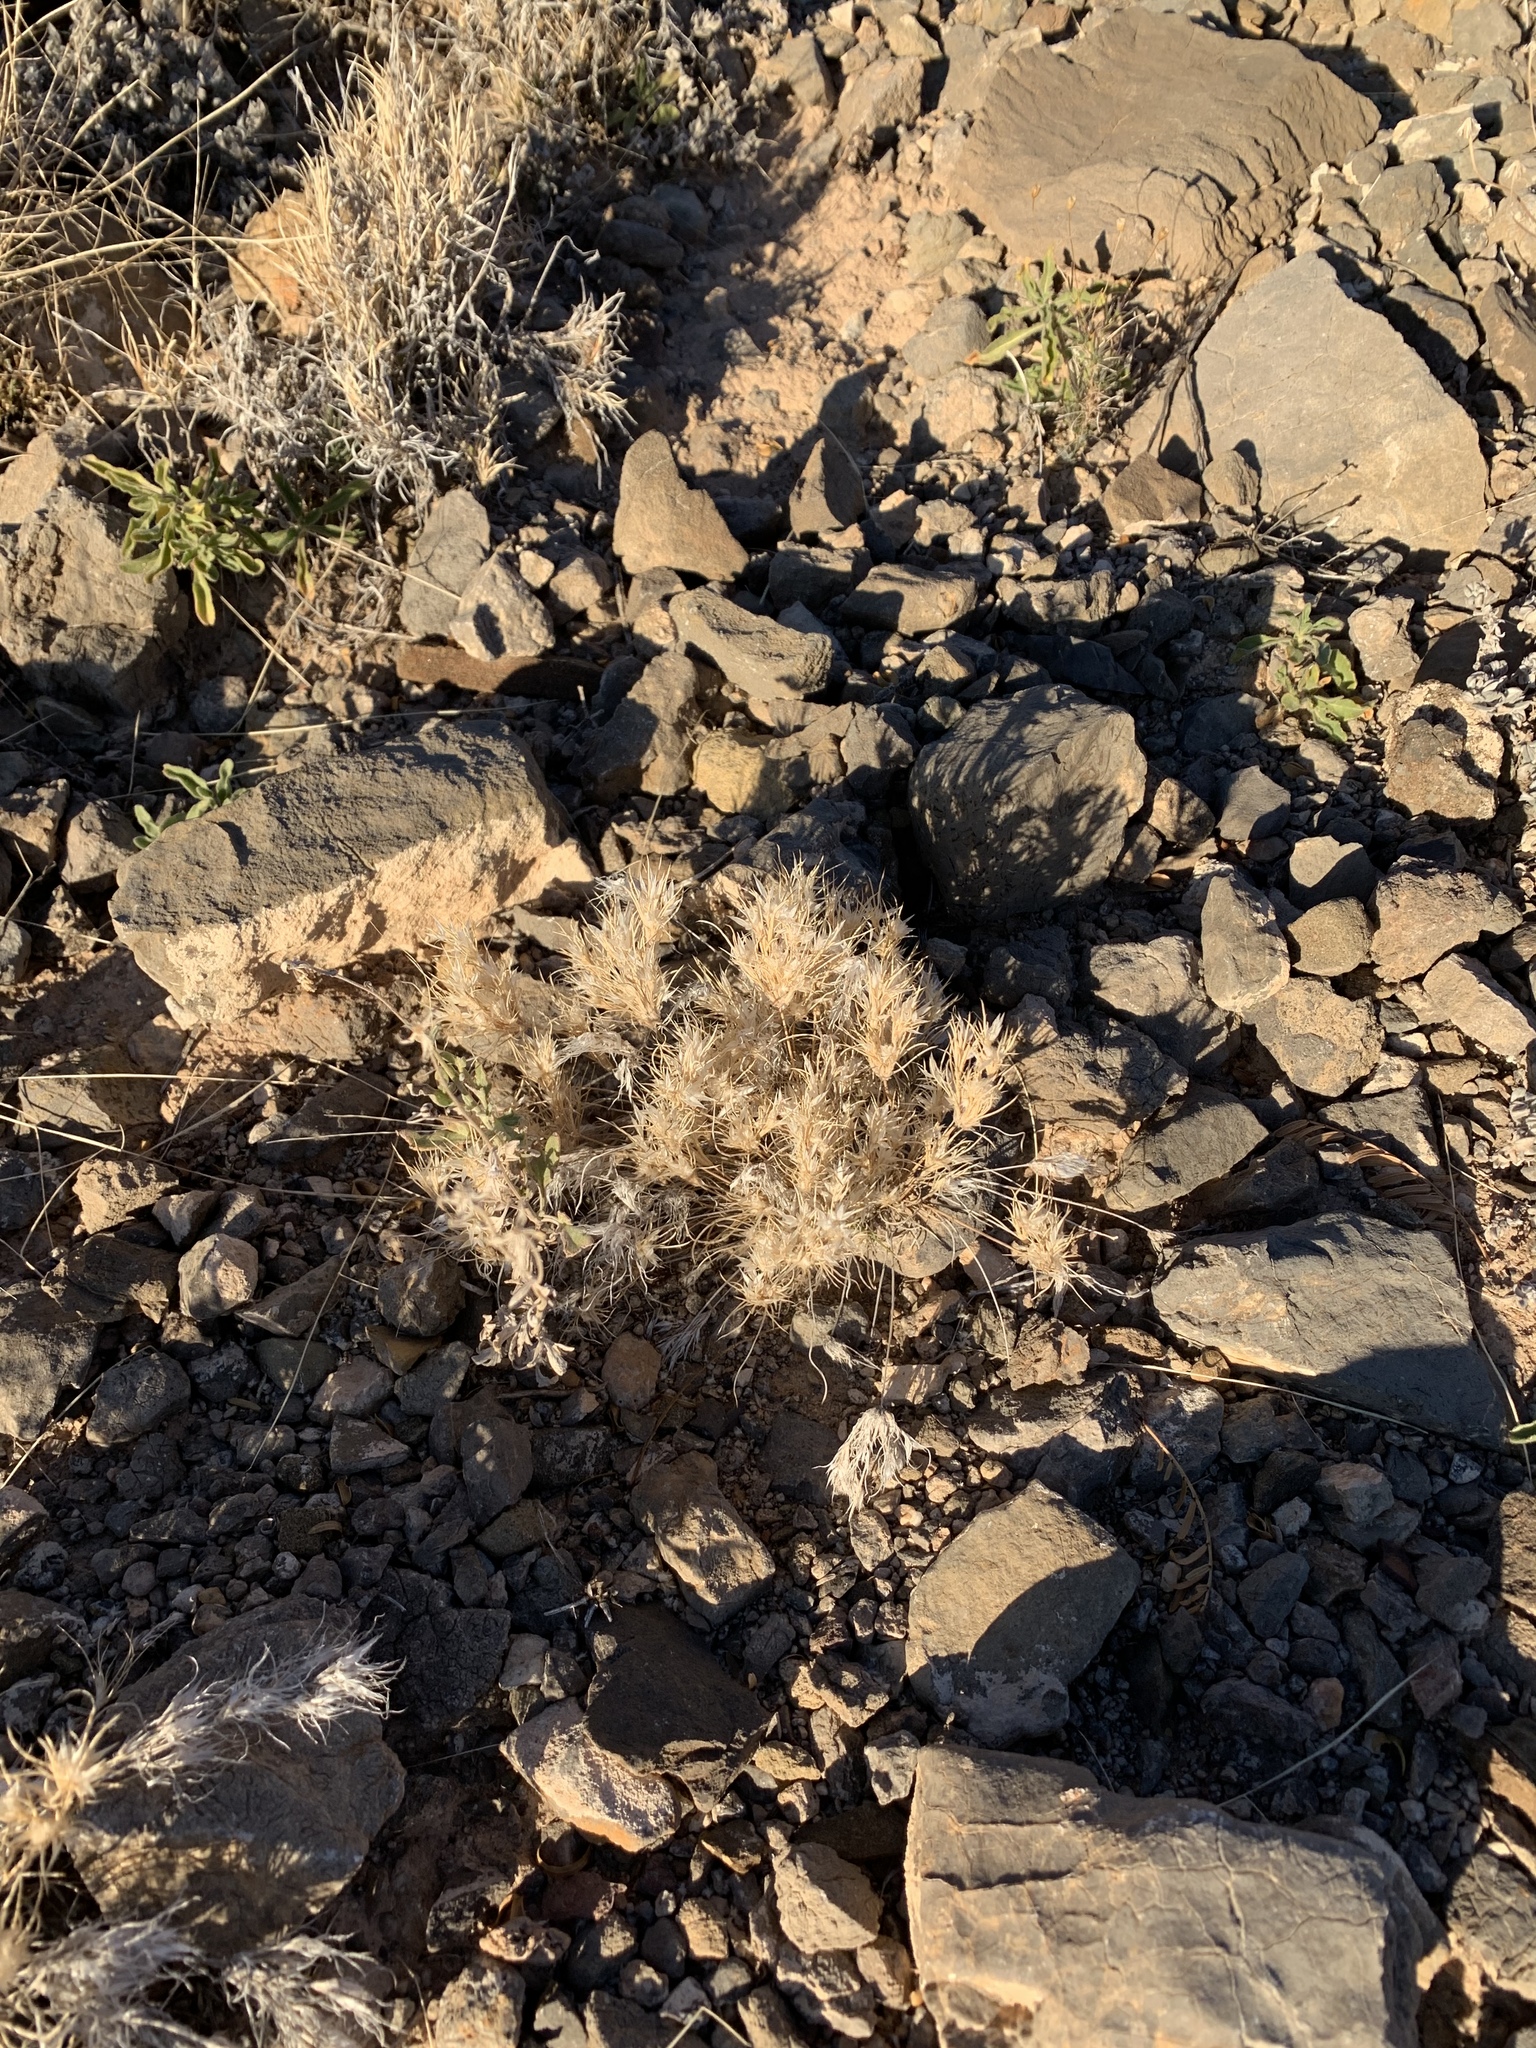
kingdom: Plantae
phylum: Tracheophyta
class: Liliopsida
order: Poales
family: Poaceae
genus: Dasyochloa
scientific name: Dasyochloa pulchella
